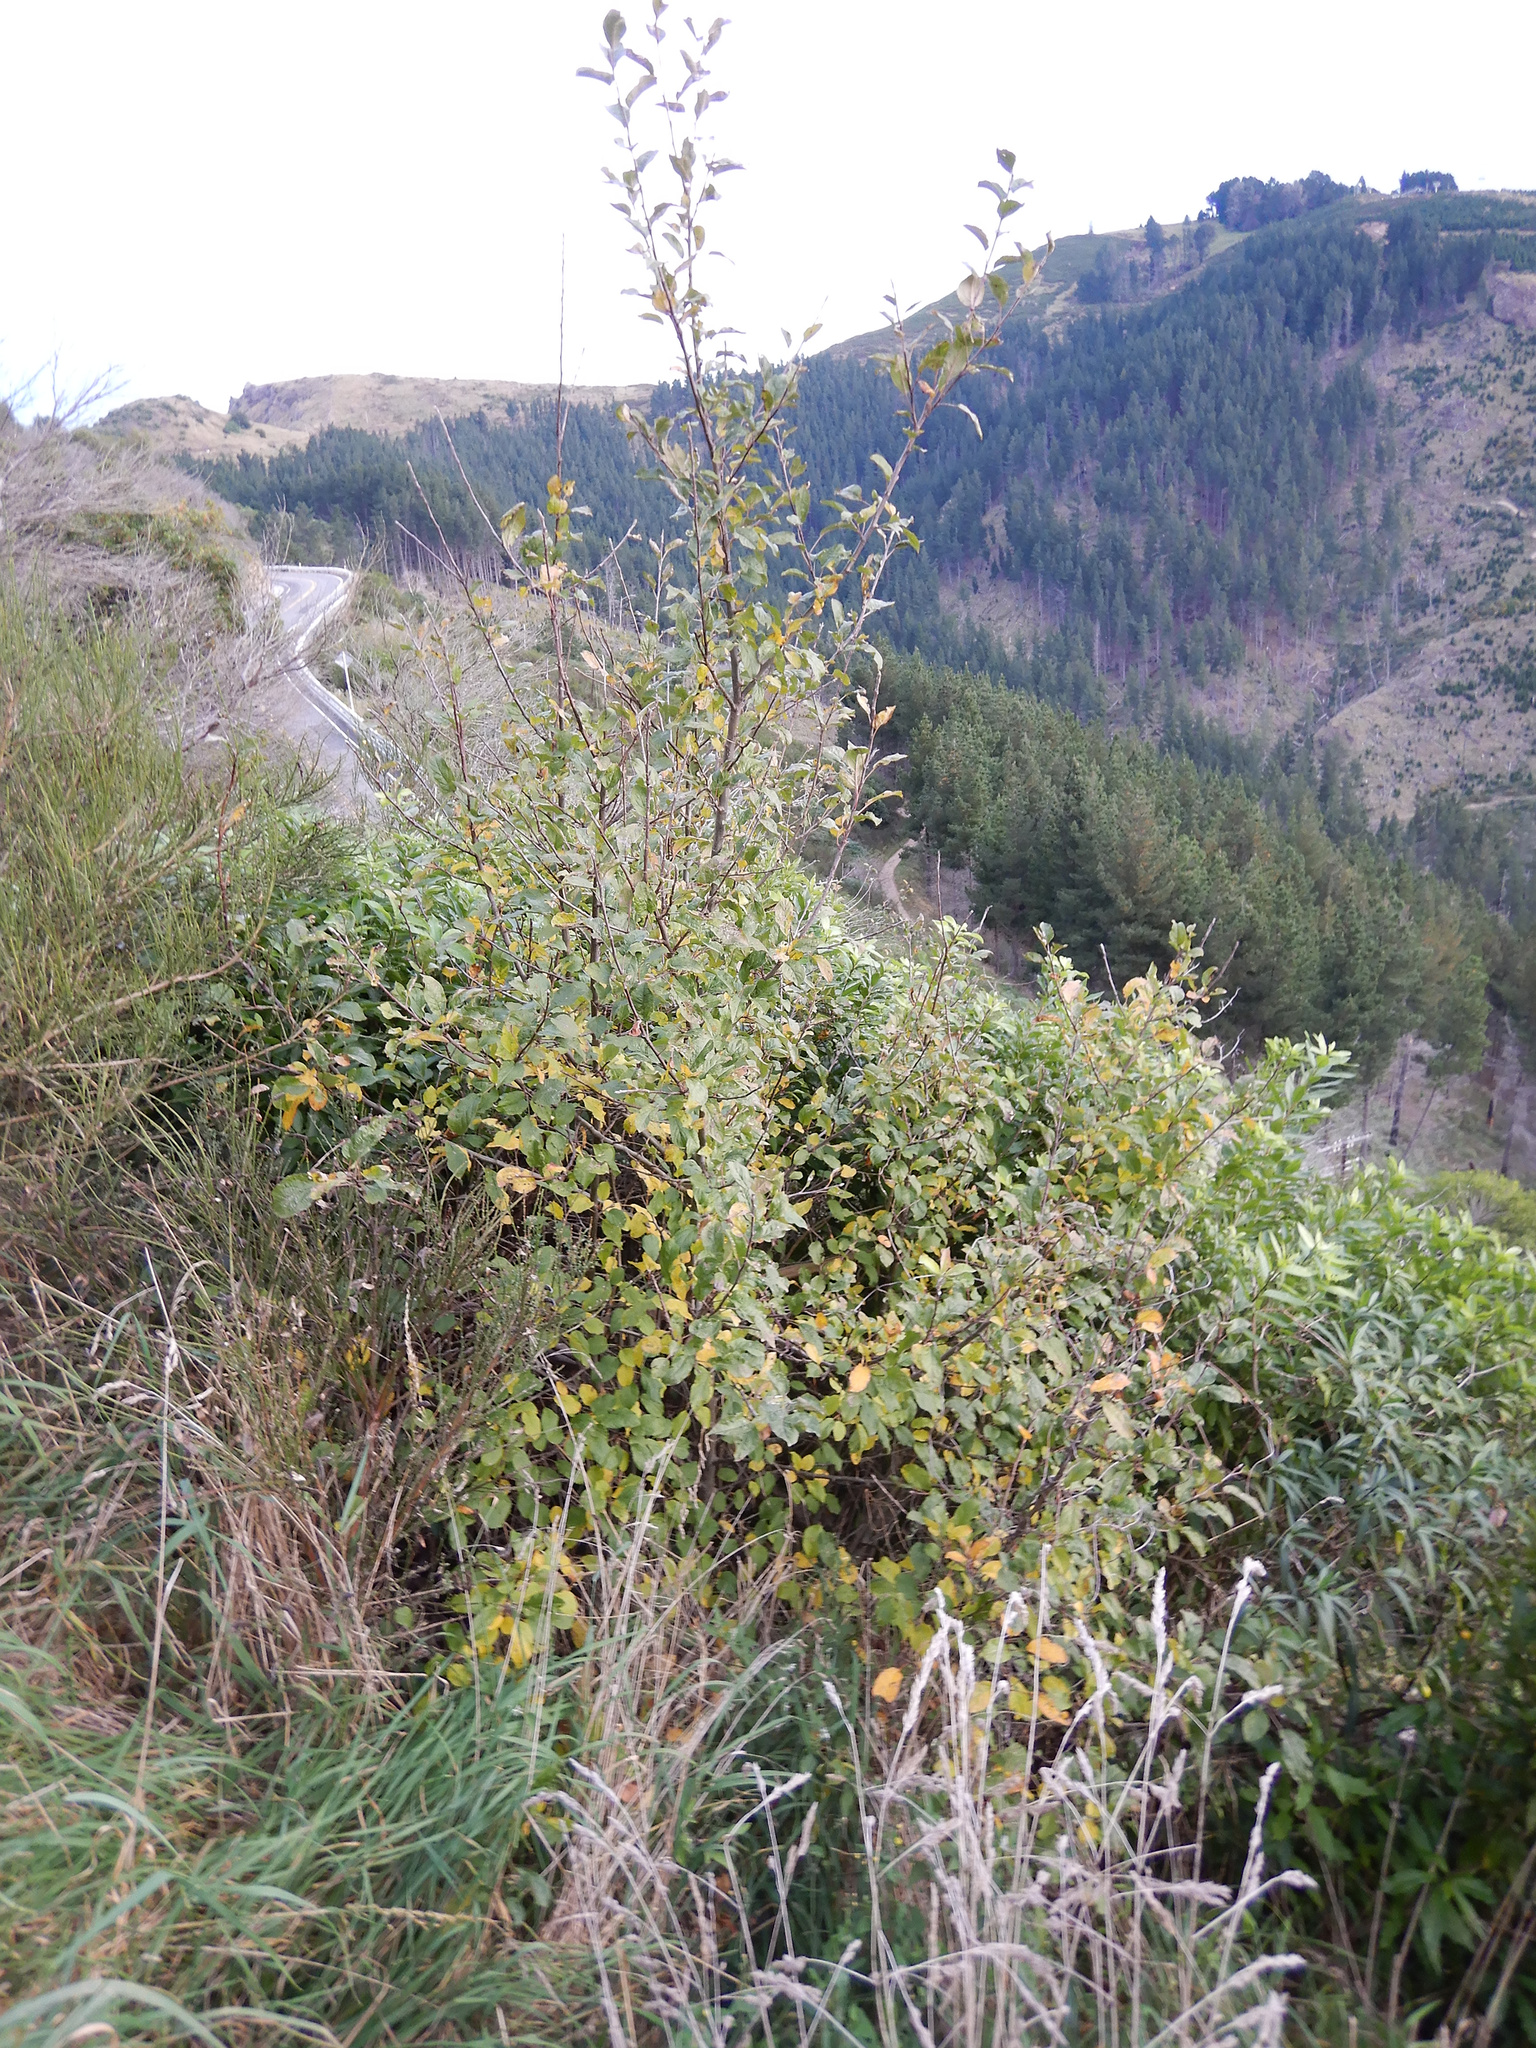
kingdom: Plantae
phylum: Tracheophyta
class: Magnoliopsida
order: Rosales
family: Rosaceae
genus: Malus
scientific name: Malus domestica
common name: Apple
